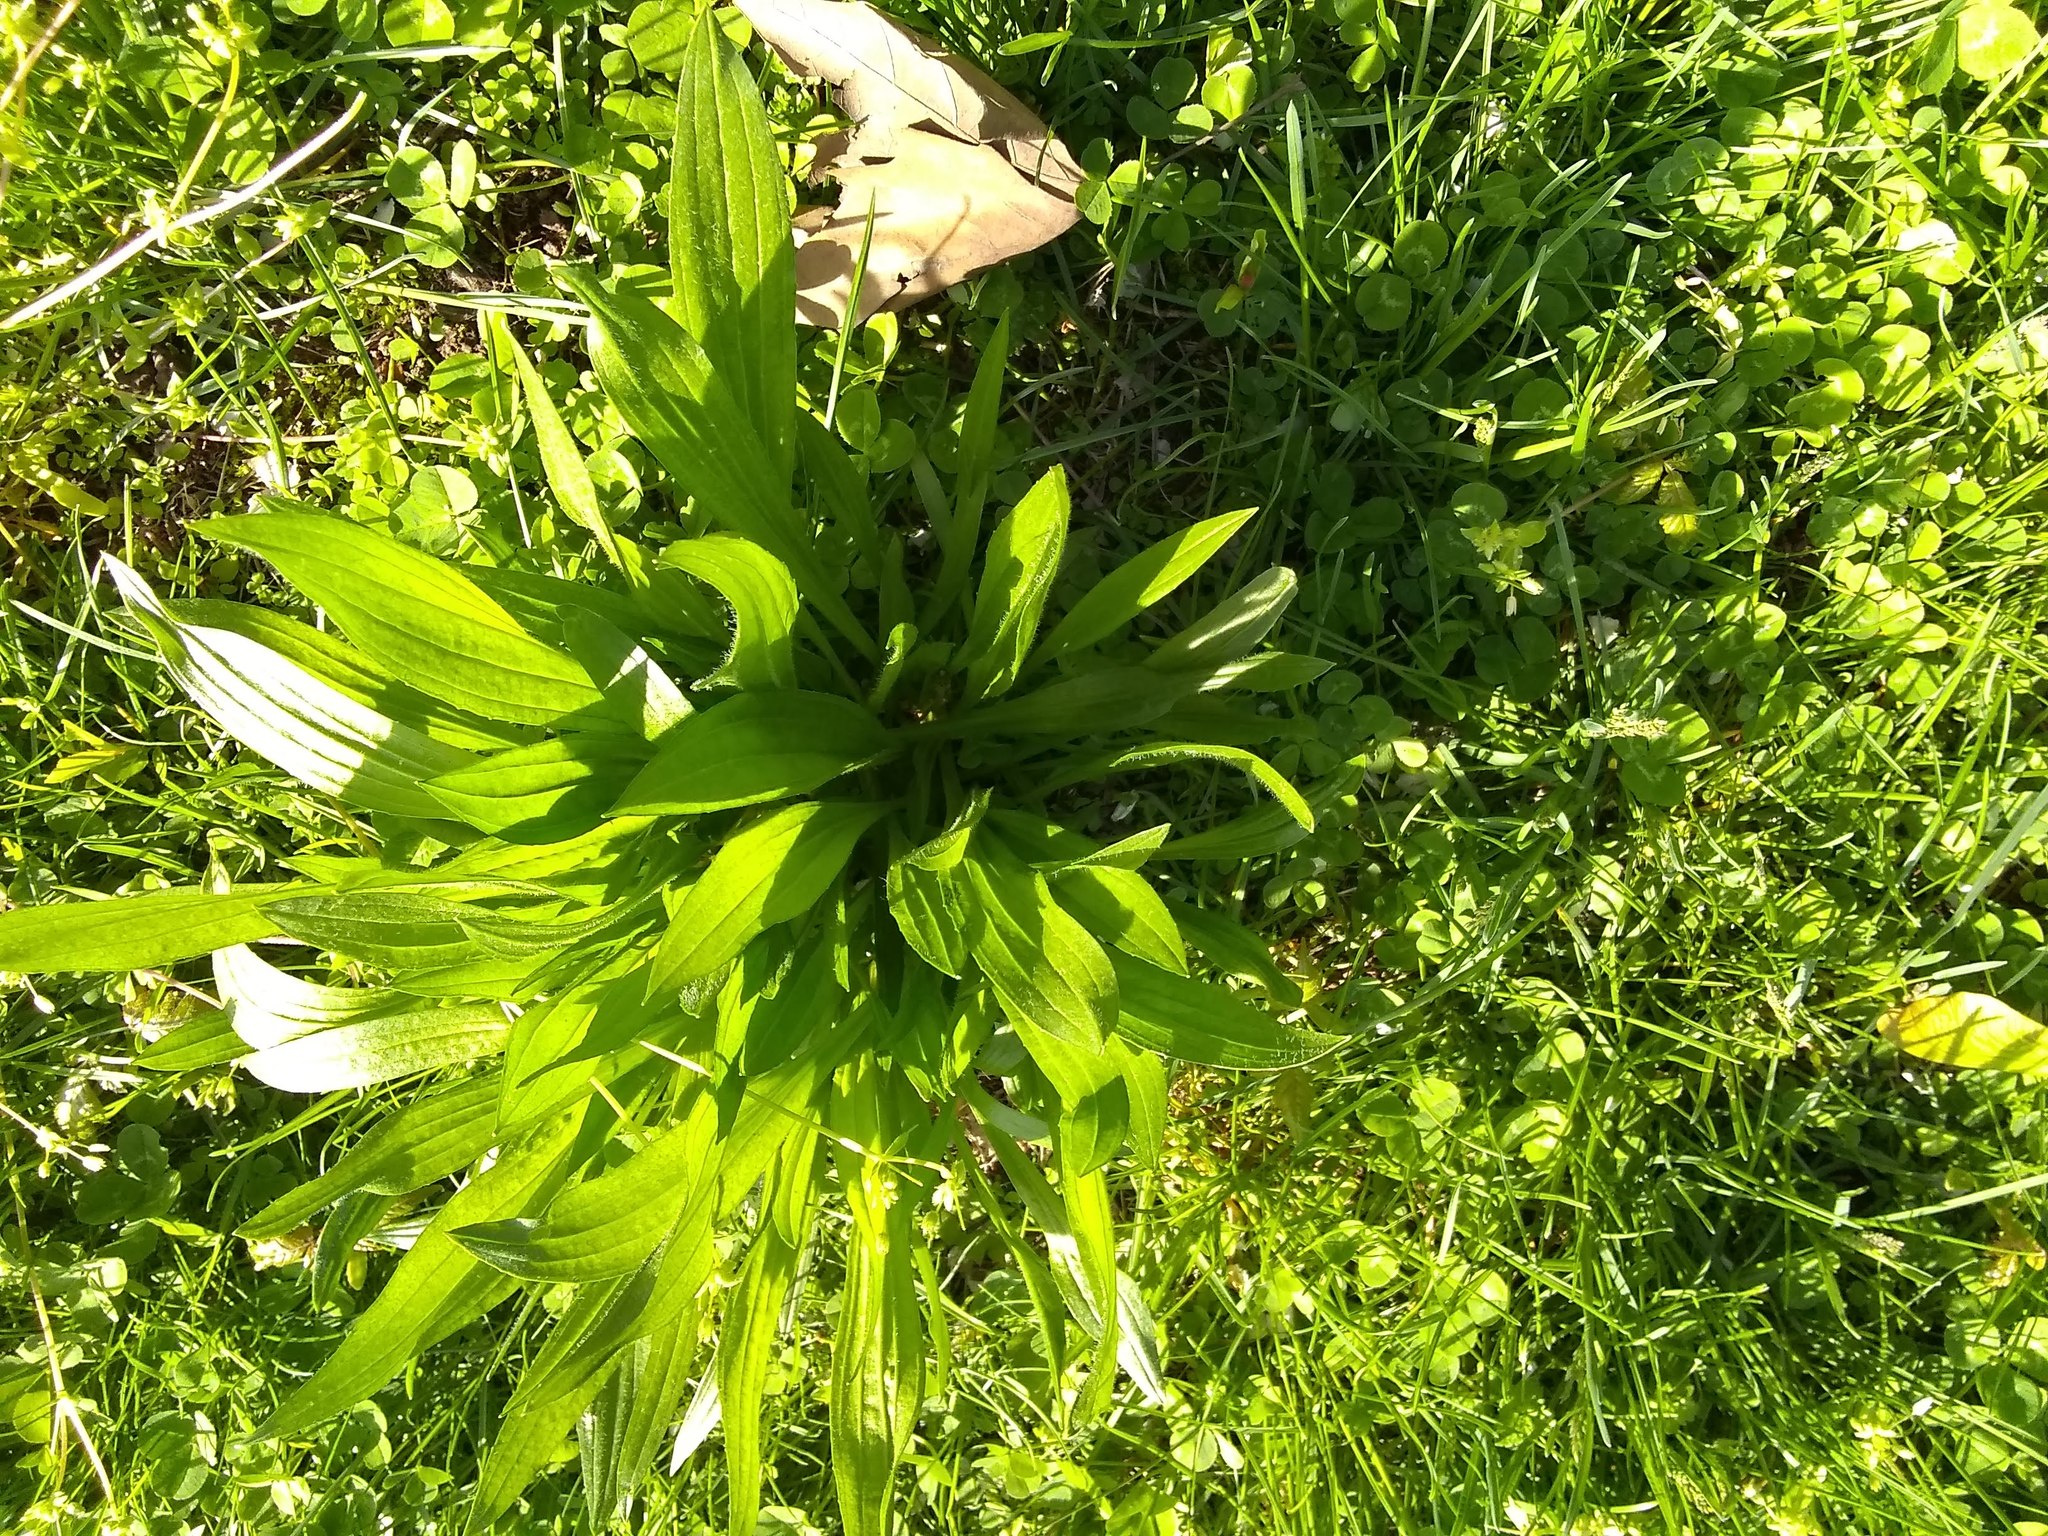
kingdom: Plantae
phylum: Tracheophyta
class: Magnoliopsida
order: Lamiales
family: Plantaginaceae
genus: Plantago
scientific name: Plantago lanceolata
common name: Ribwort plantain
